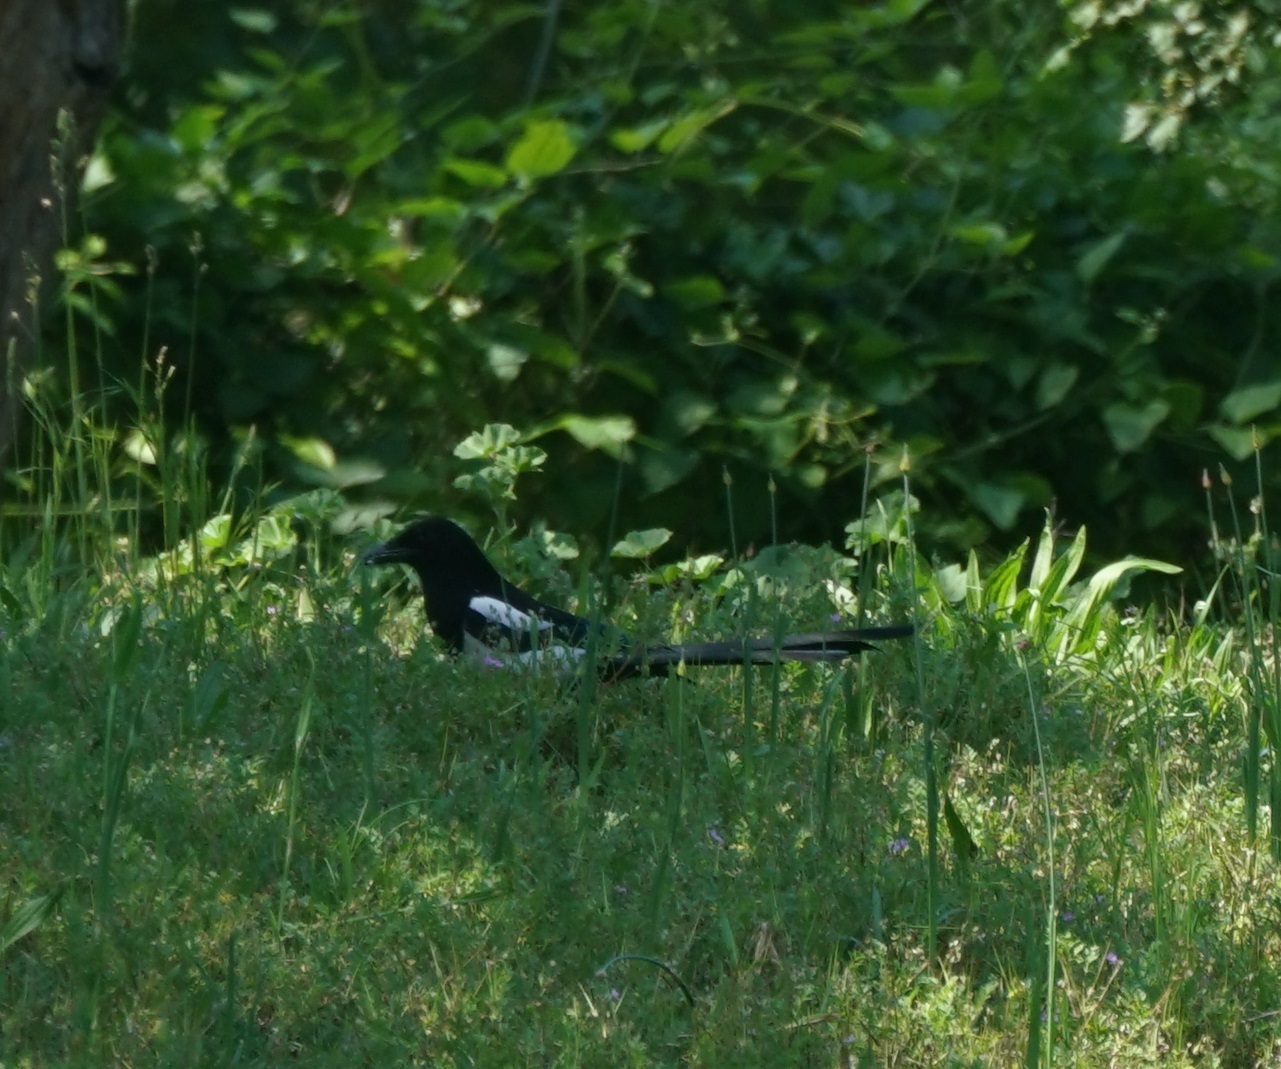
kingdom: Animalia
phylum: Chordata
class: Aves
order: Passeriformes
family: Corvidae
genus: Pica
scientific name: Pica pica
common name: Eurasian magpie
